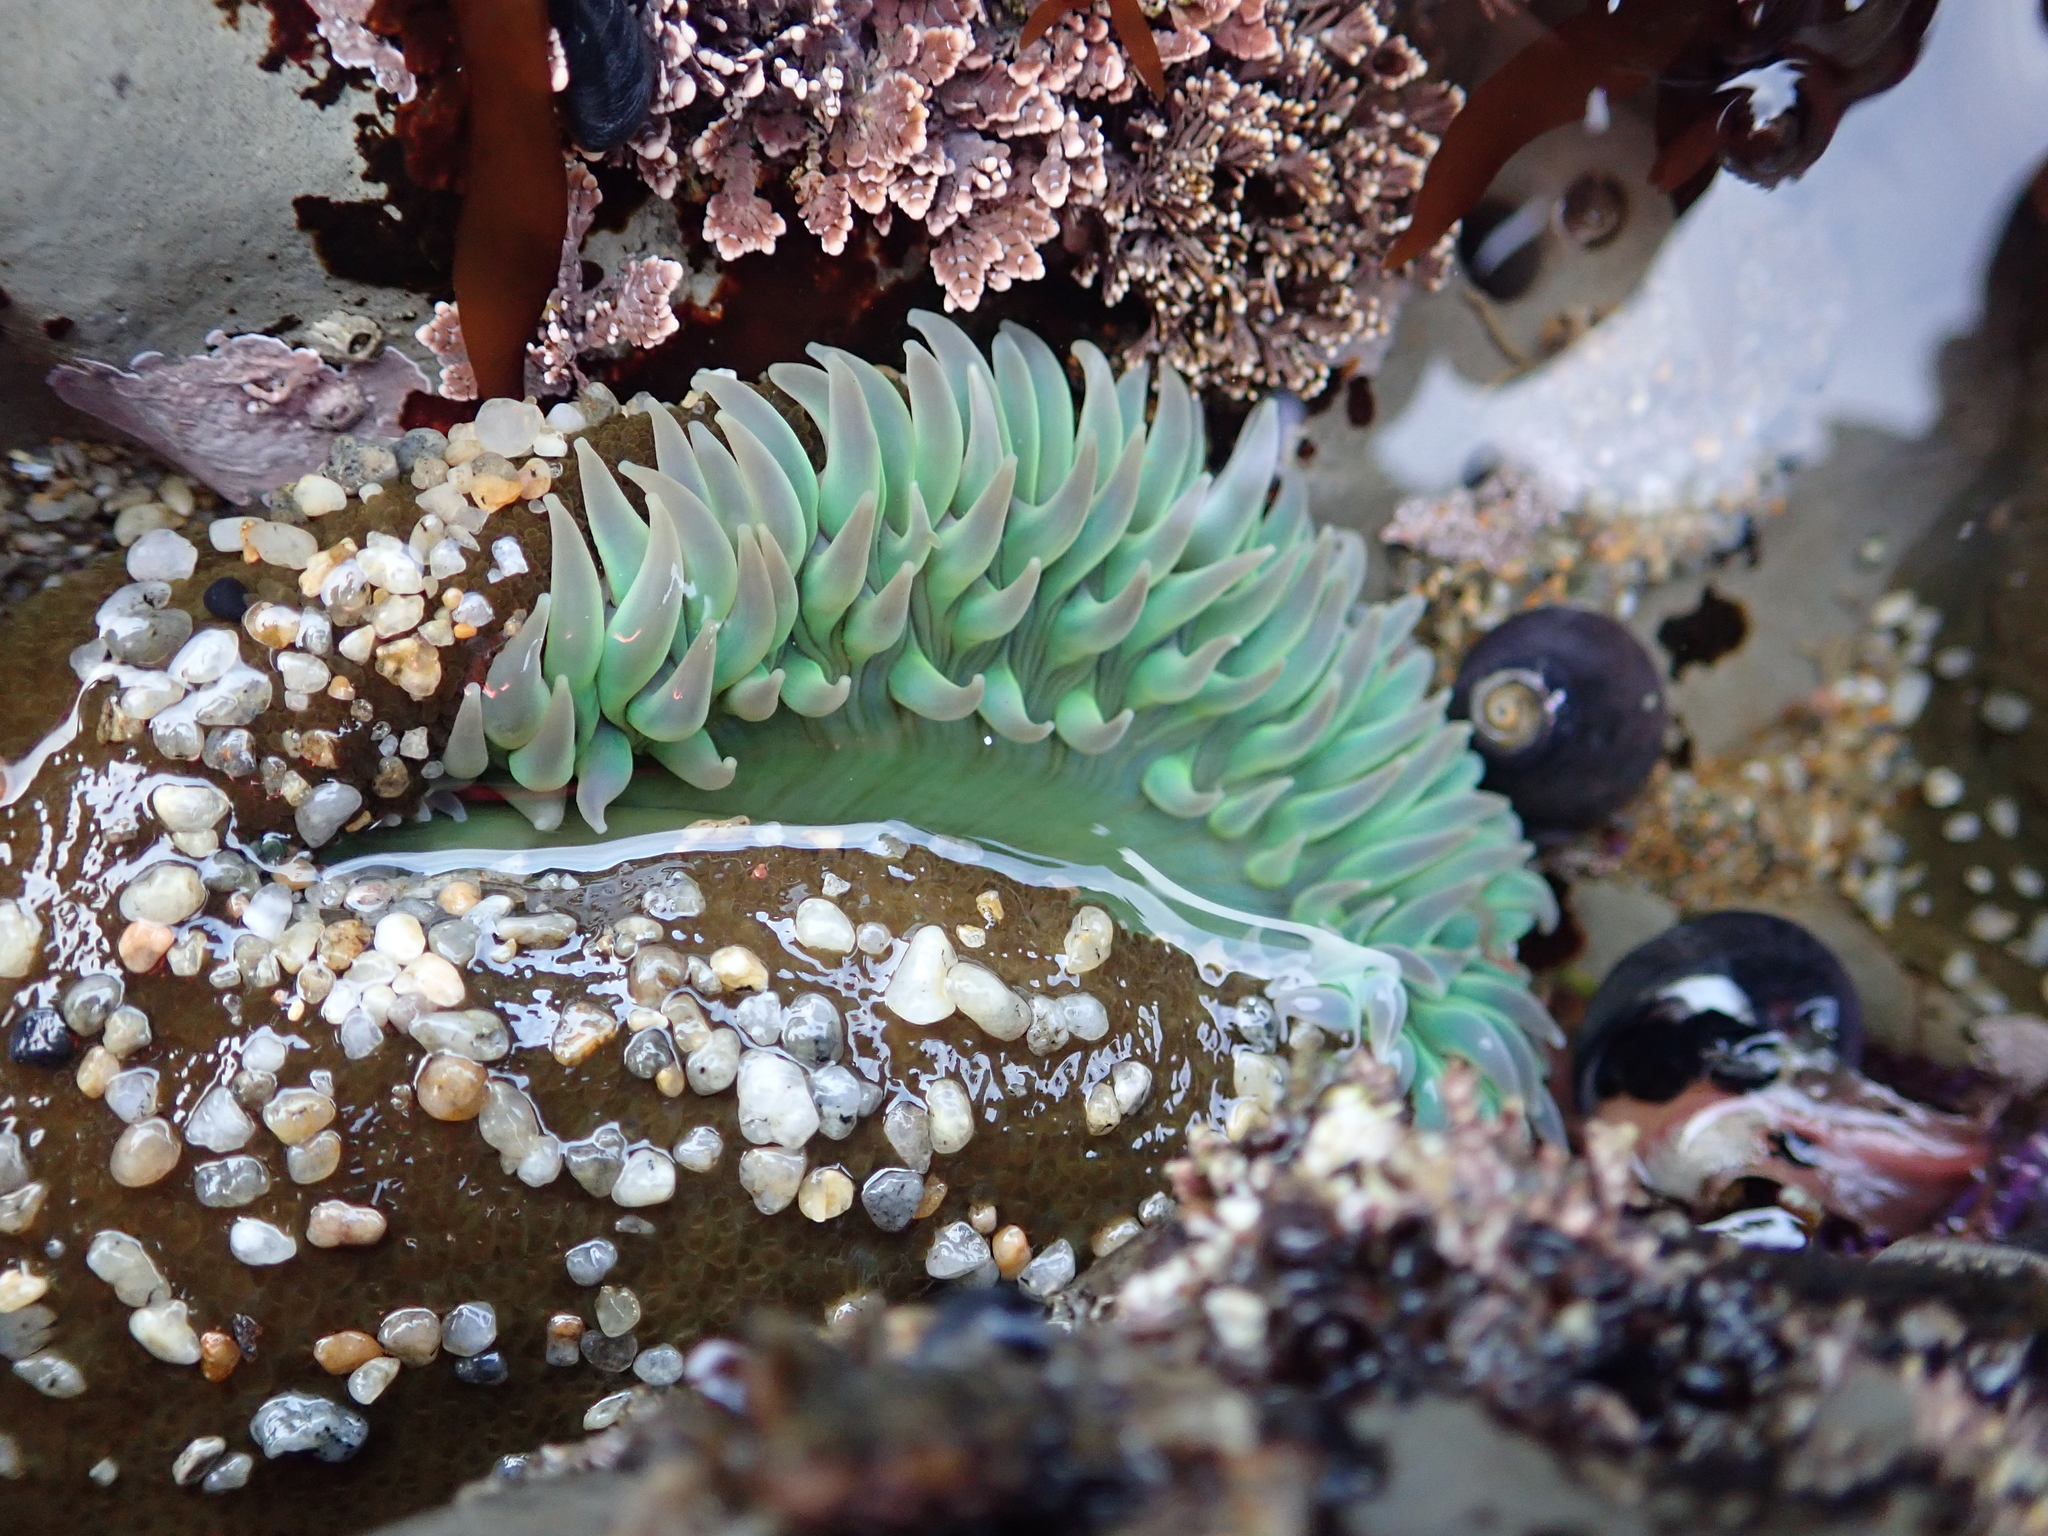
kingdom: Animalia
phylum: Cnidaria
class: Anthozoa
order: Actiniaria
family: Actiniidae
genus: Anthopleura
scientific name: Anthopleura xanthogrammica
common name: Giant green anemone
